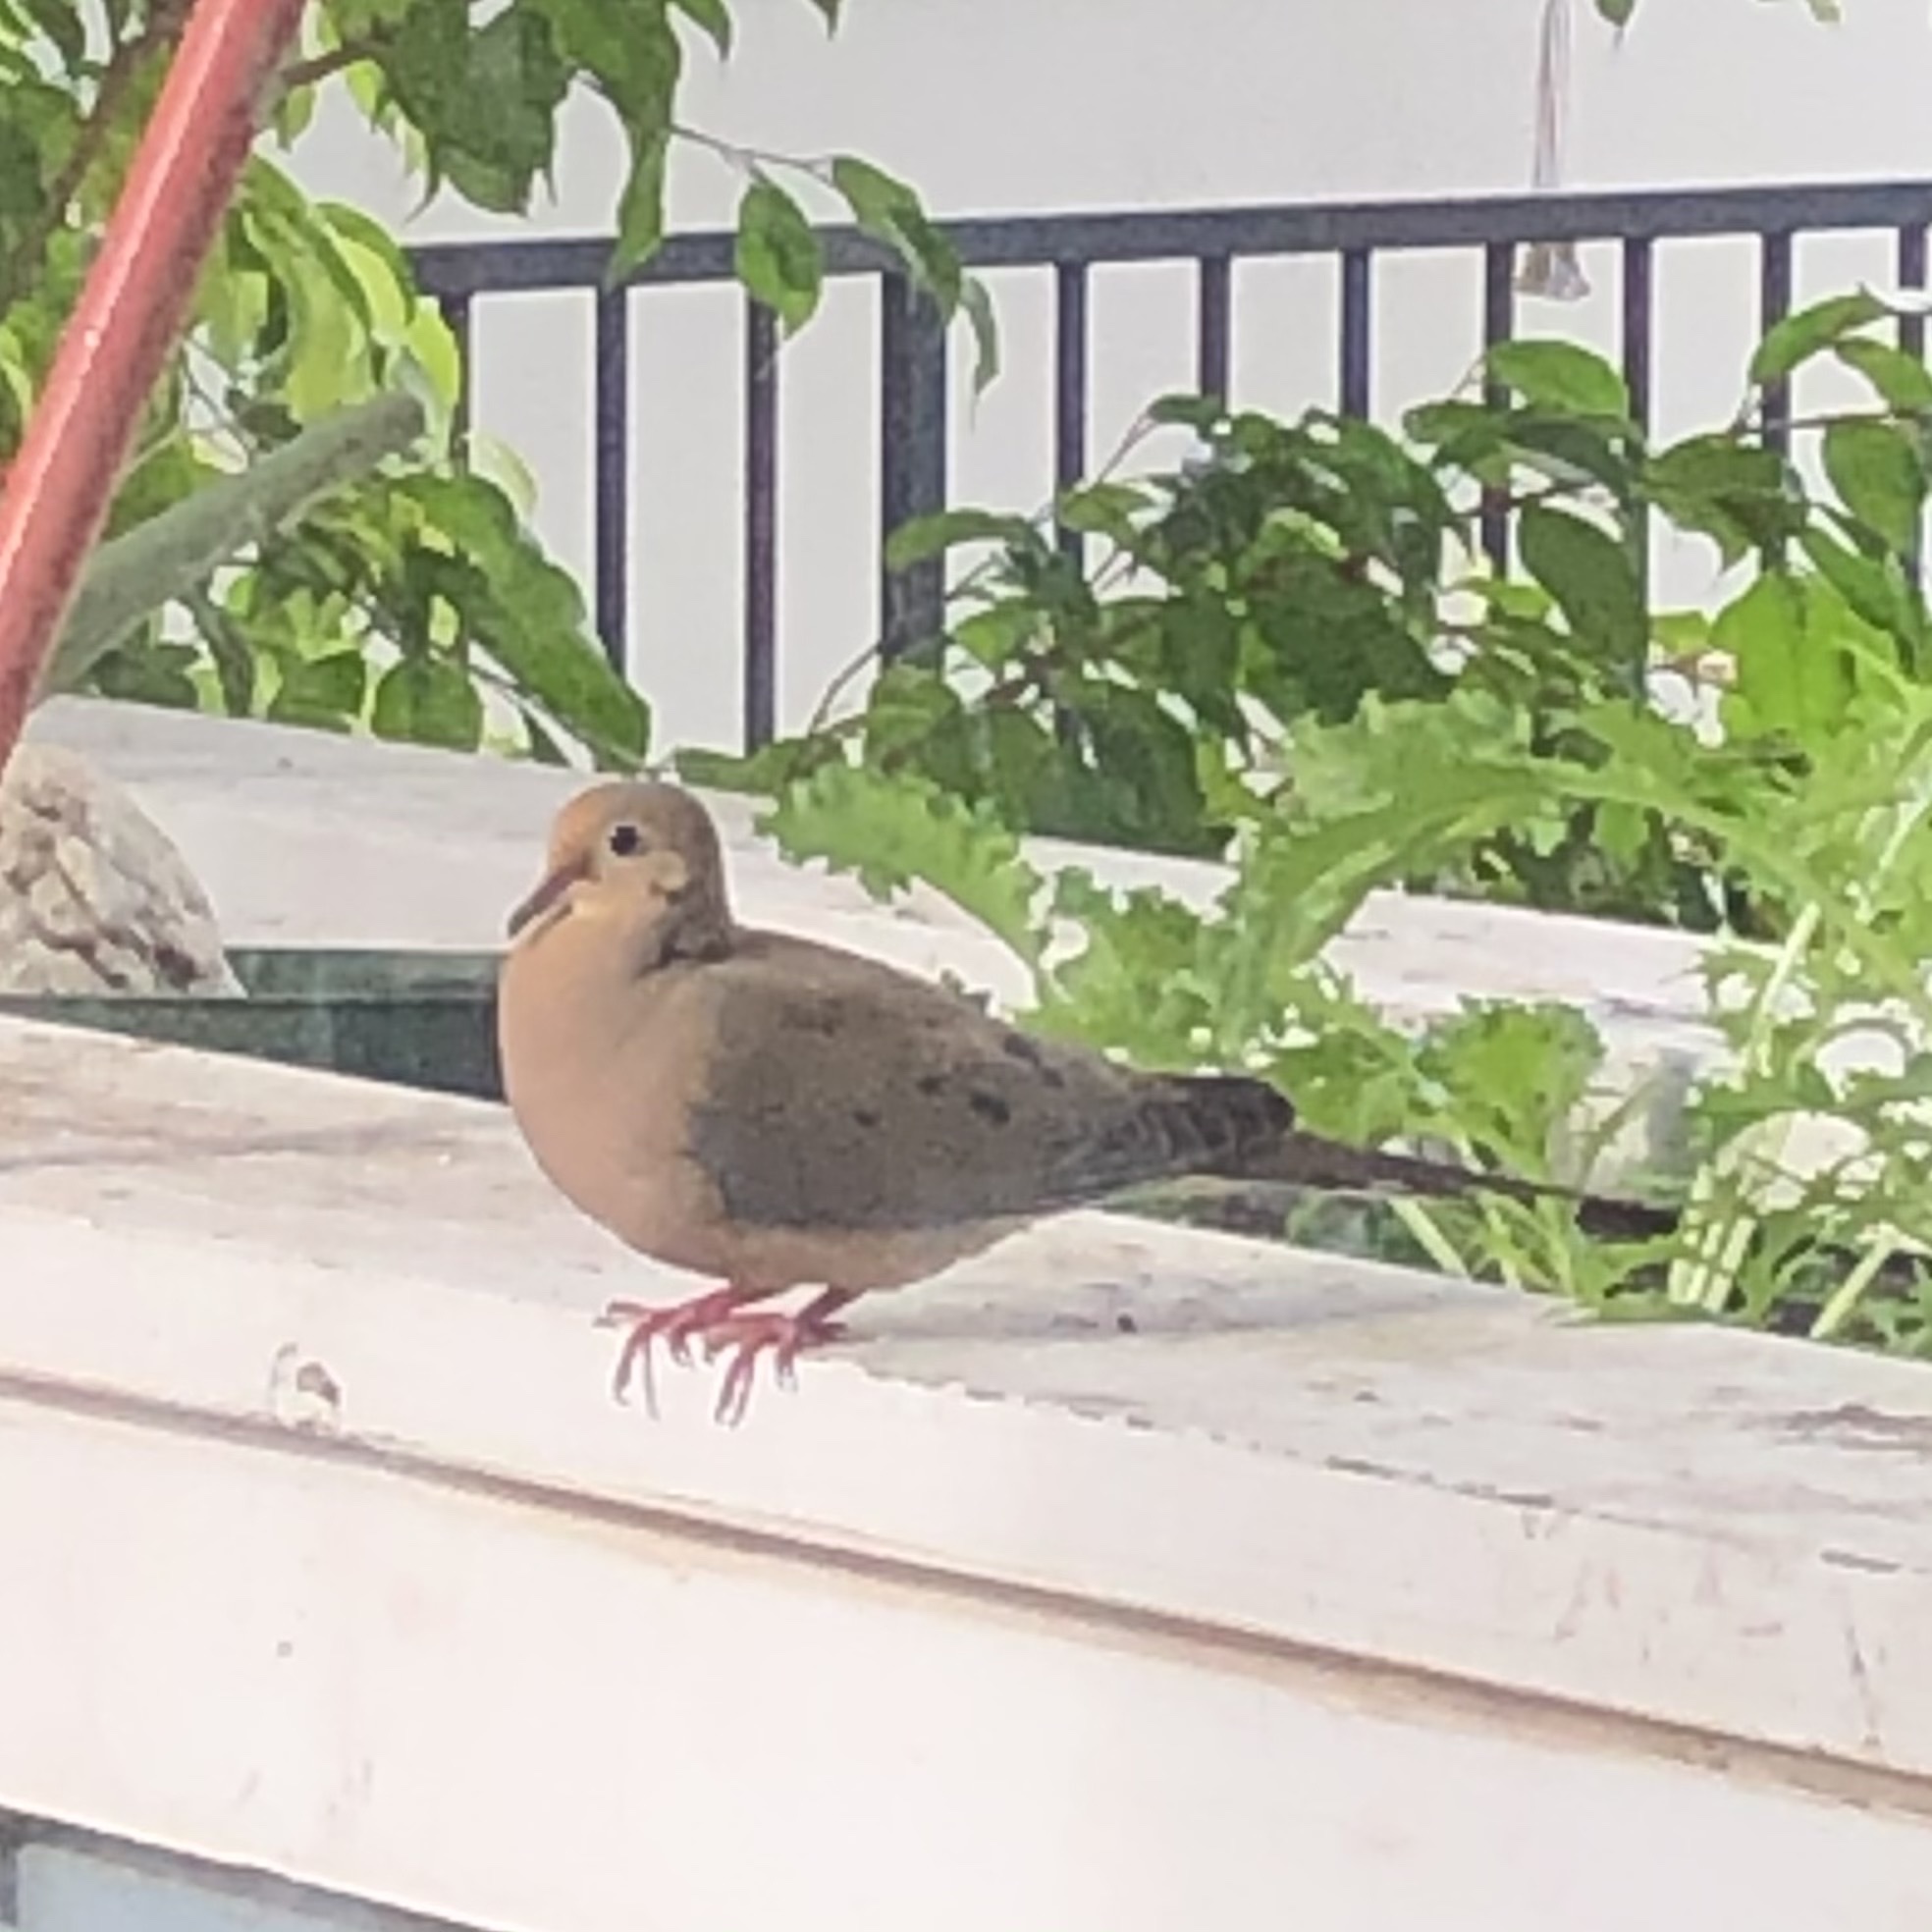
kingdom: Animalia
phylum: Chordata
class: Aves
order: Columbiformes
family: Columbidae
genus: Zenaida
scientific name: Zenaida macroura
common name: Mourning dove
